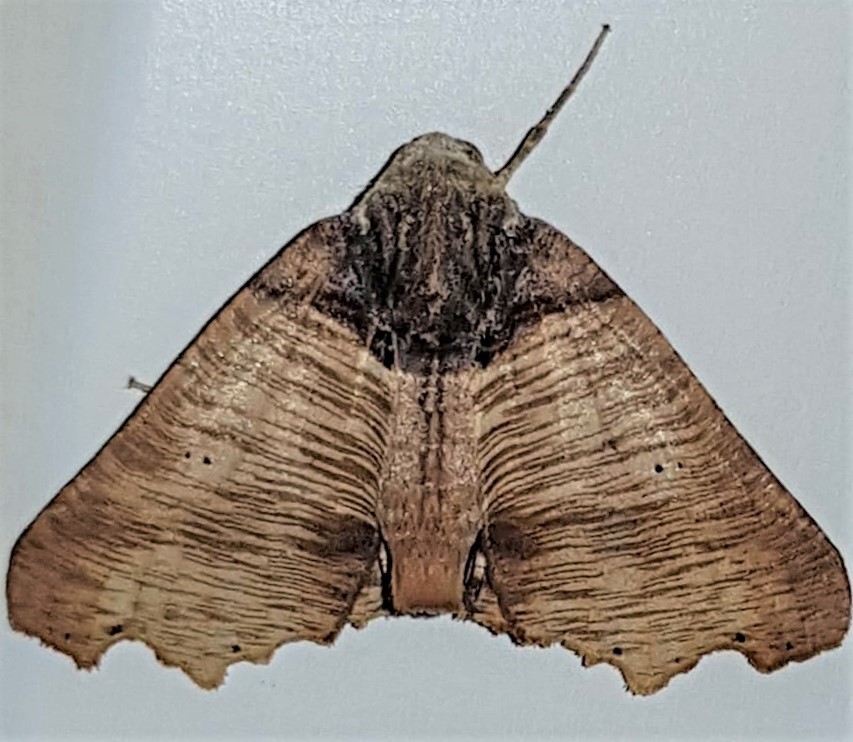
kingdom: Animalia
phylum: Arthropoda
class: Insecta
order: Lepidoptera
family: Geometridae
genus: Pero
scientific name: Pero polygonaria
